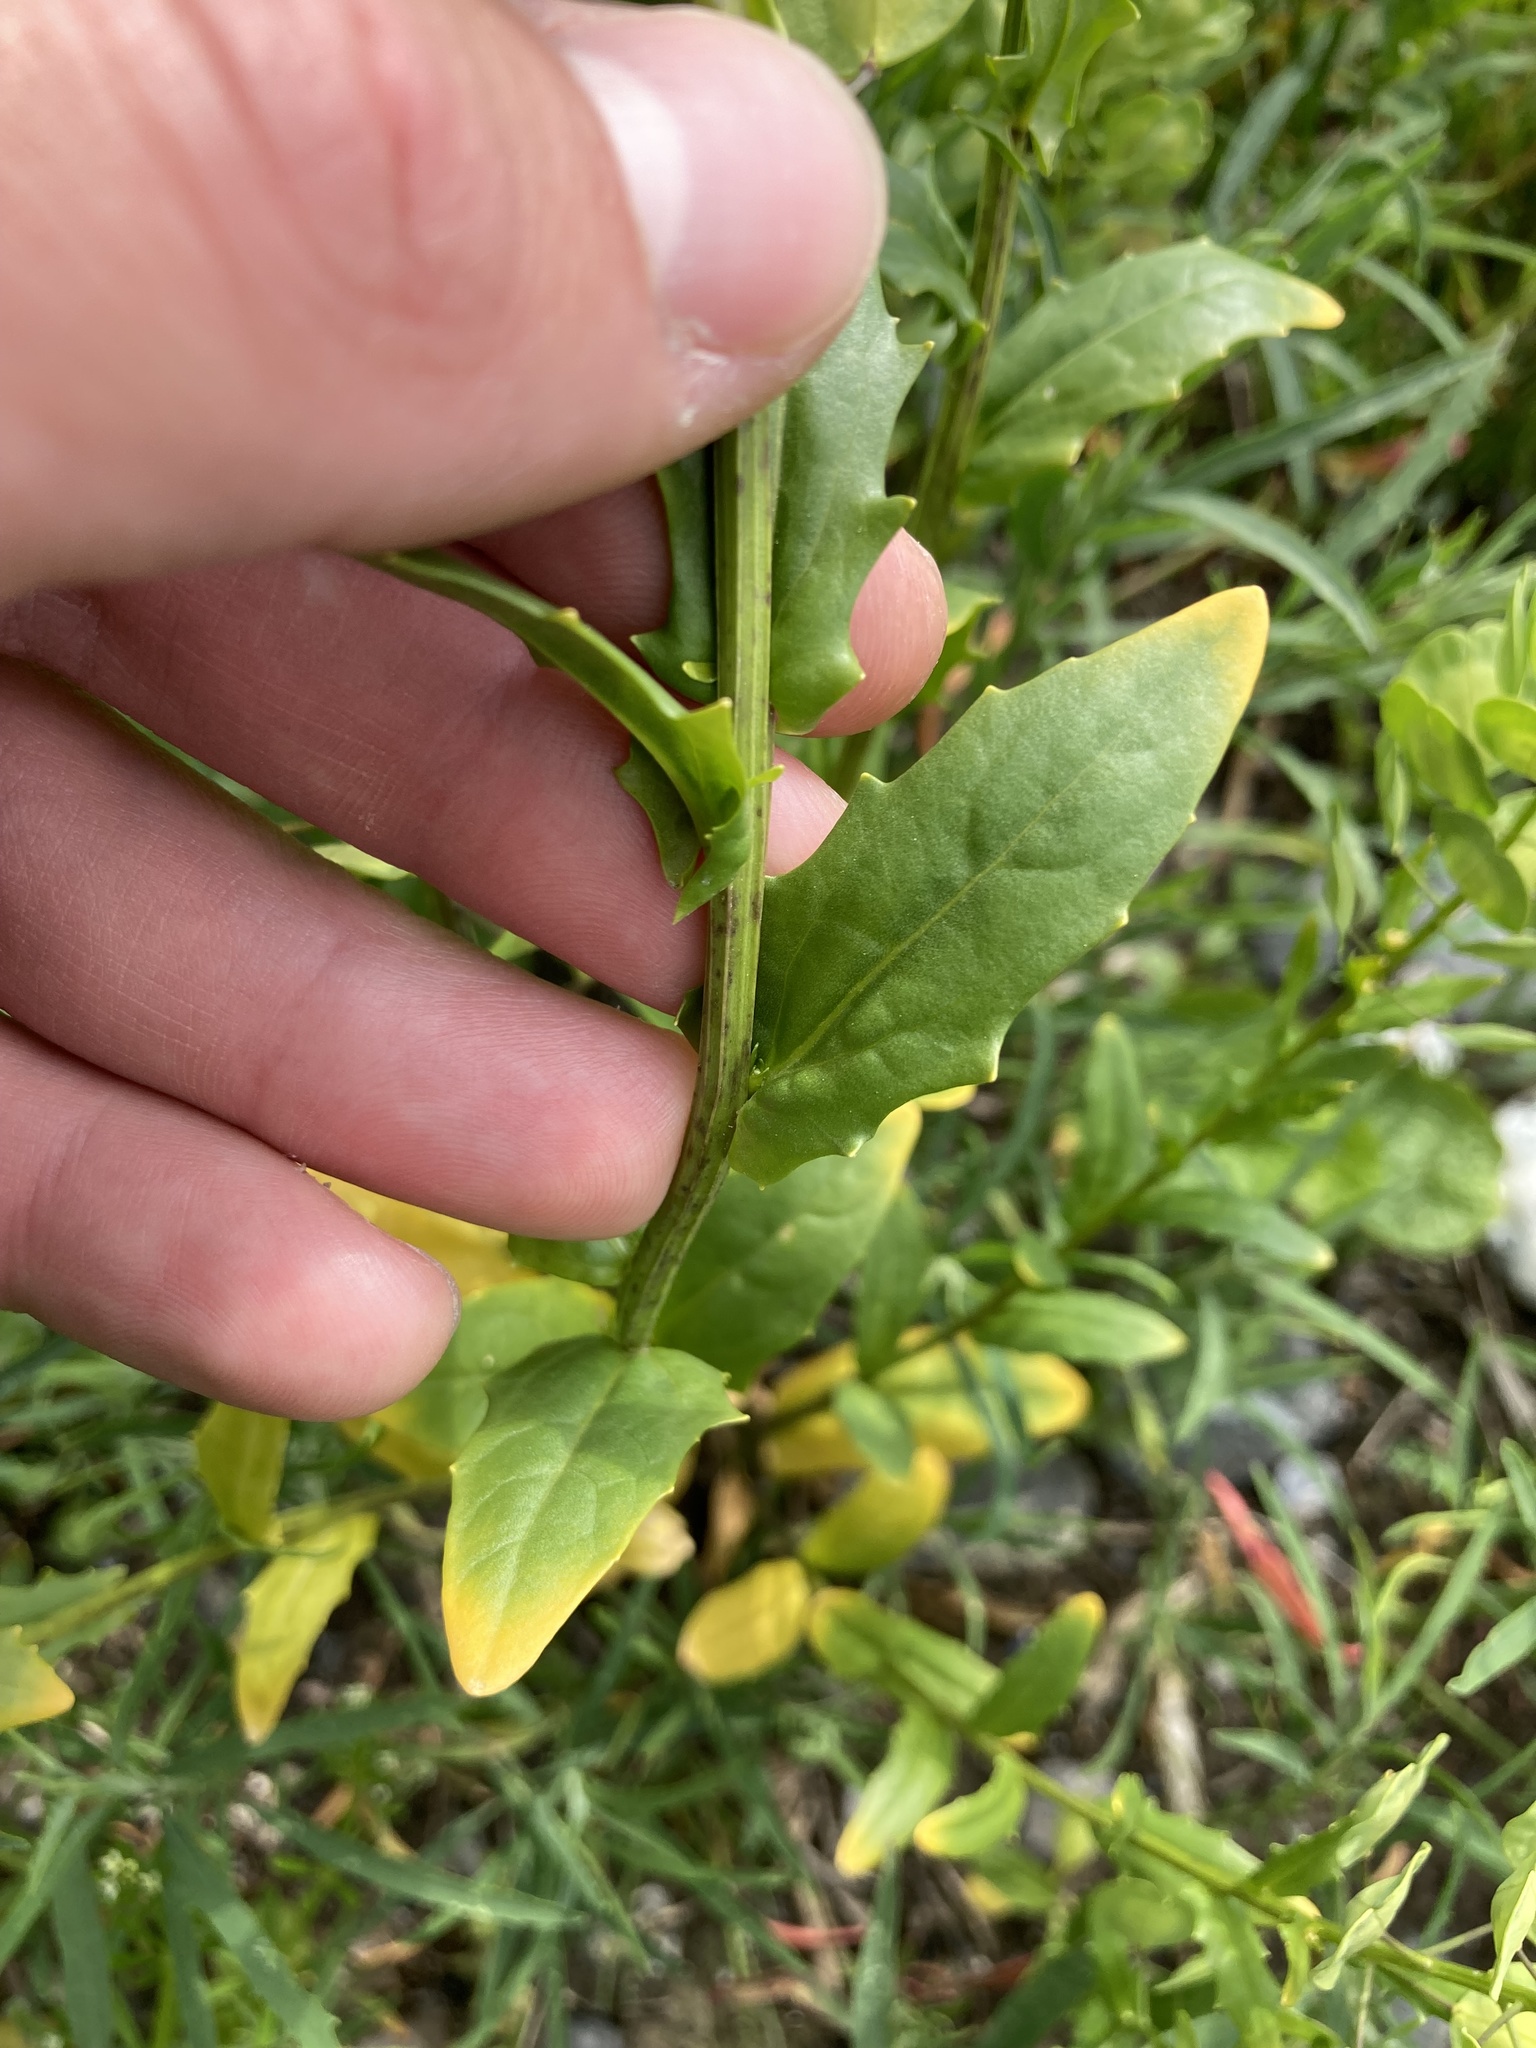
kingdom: Plantae
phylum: Tracheophyta
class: Magnoliopsida
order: Brassicales
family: Brassicaceae
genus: Thlaspi
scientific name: Thlaspi arvense
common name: Field pennycress
